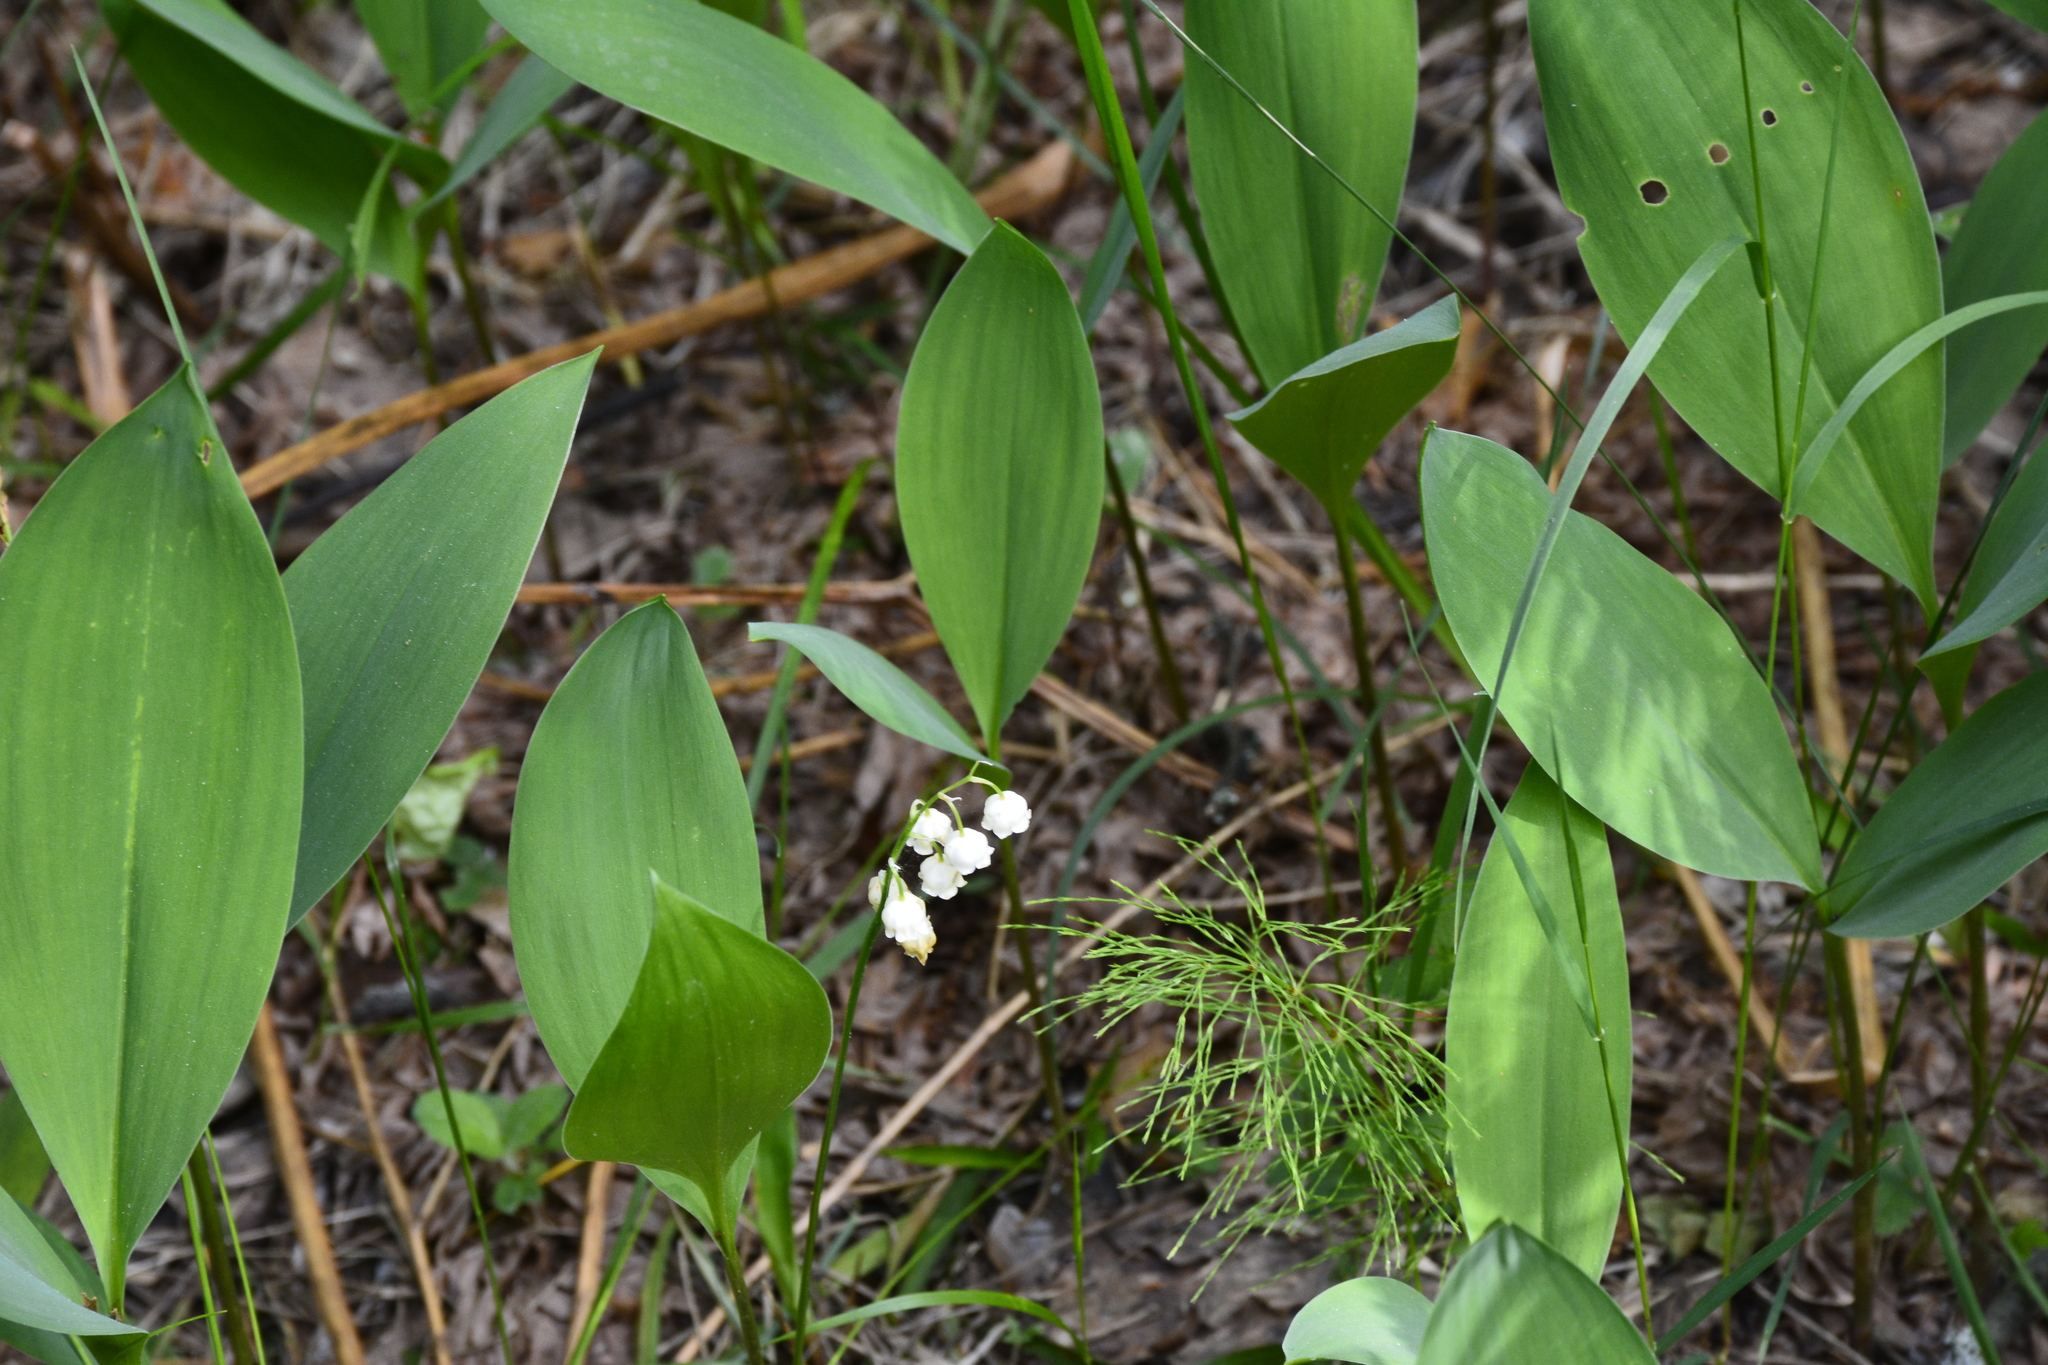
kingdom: Plantae
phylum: Tracheophyta
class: Liliopsida
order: Asparagales
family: Asparagaceae
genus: Convallaria
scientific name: Convallaria majalis
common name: Lily-of-the-valley
